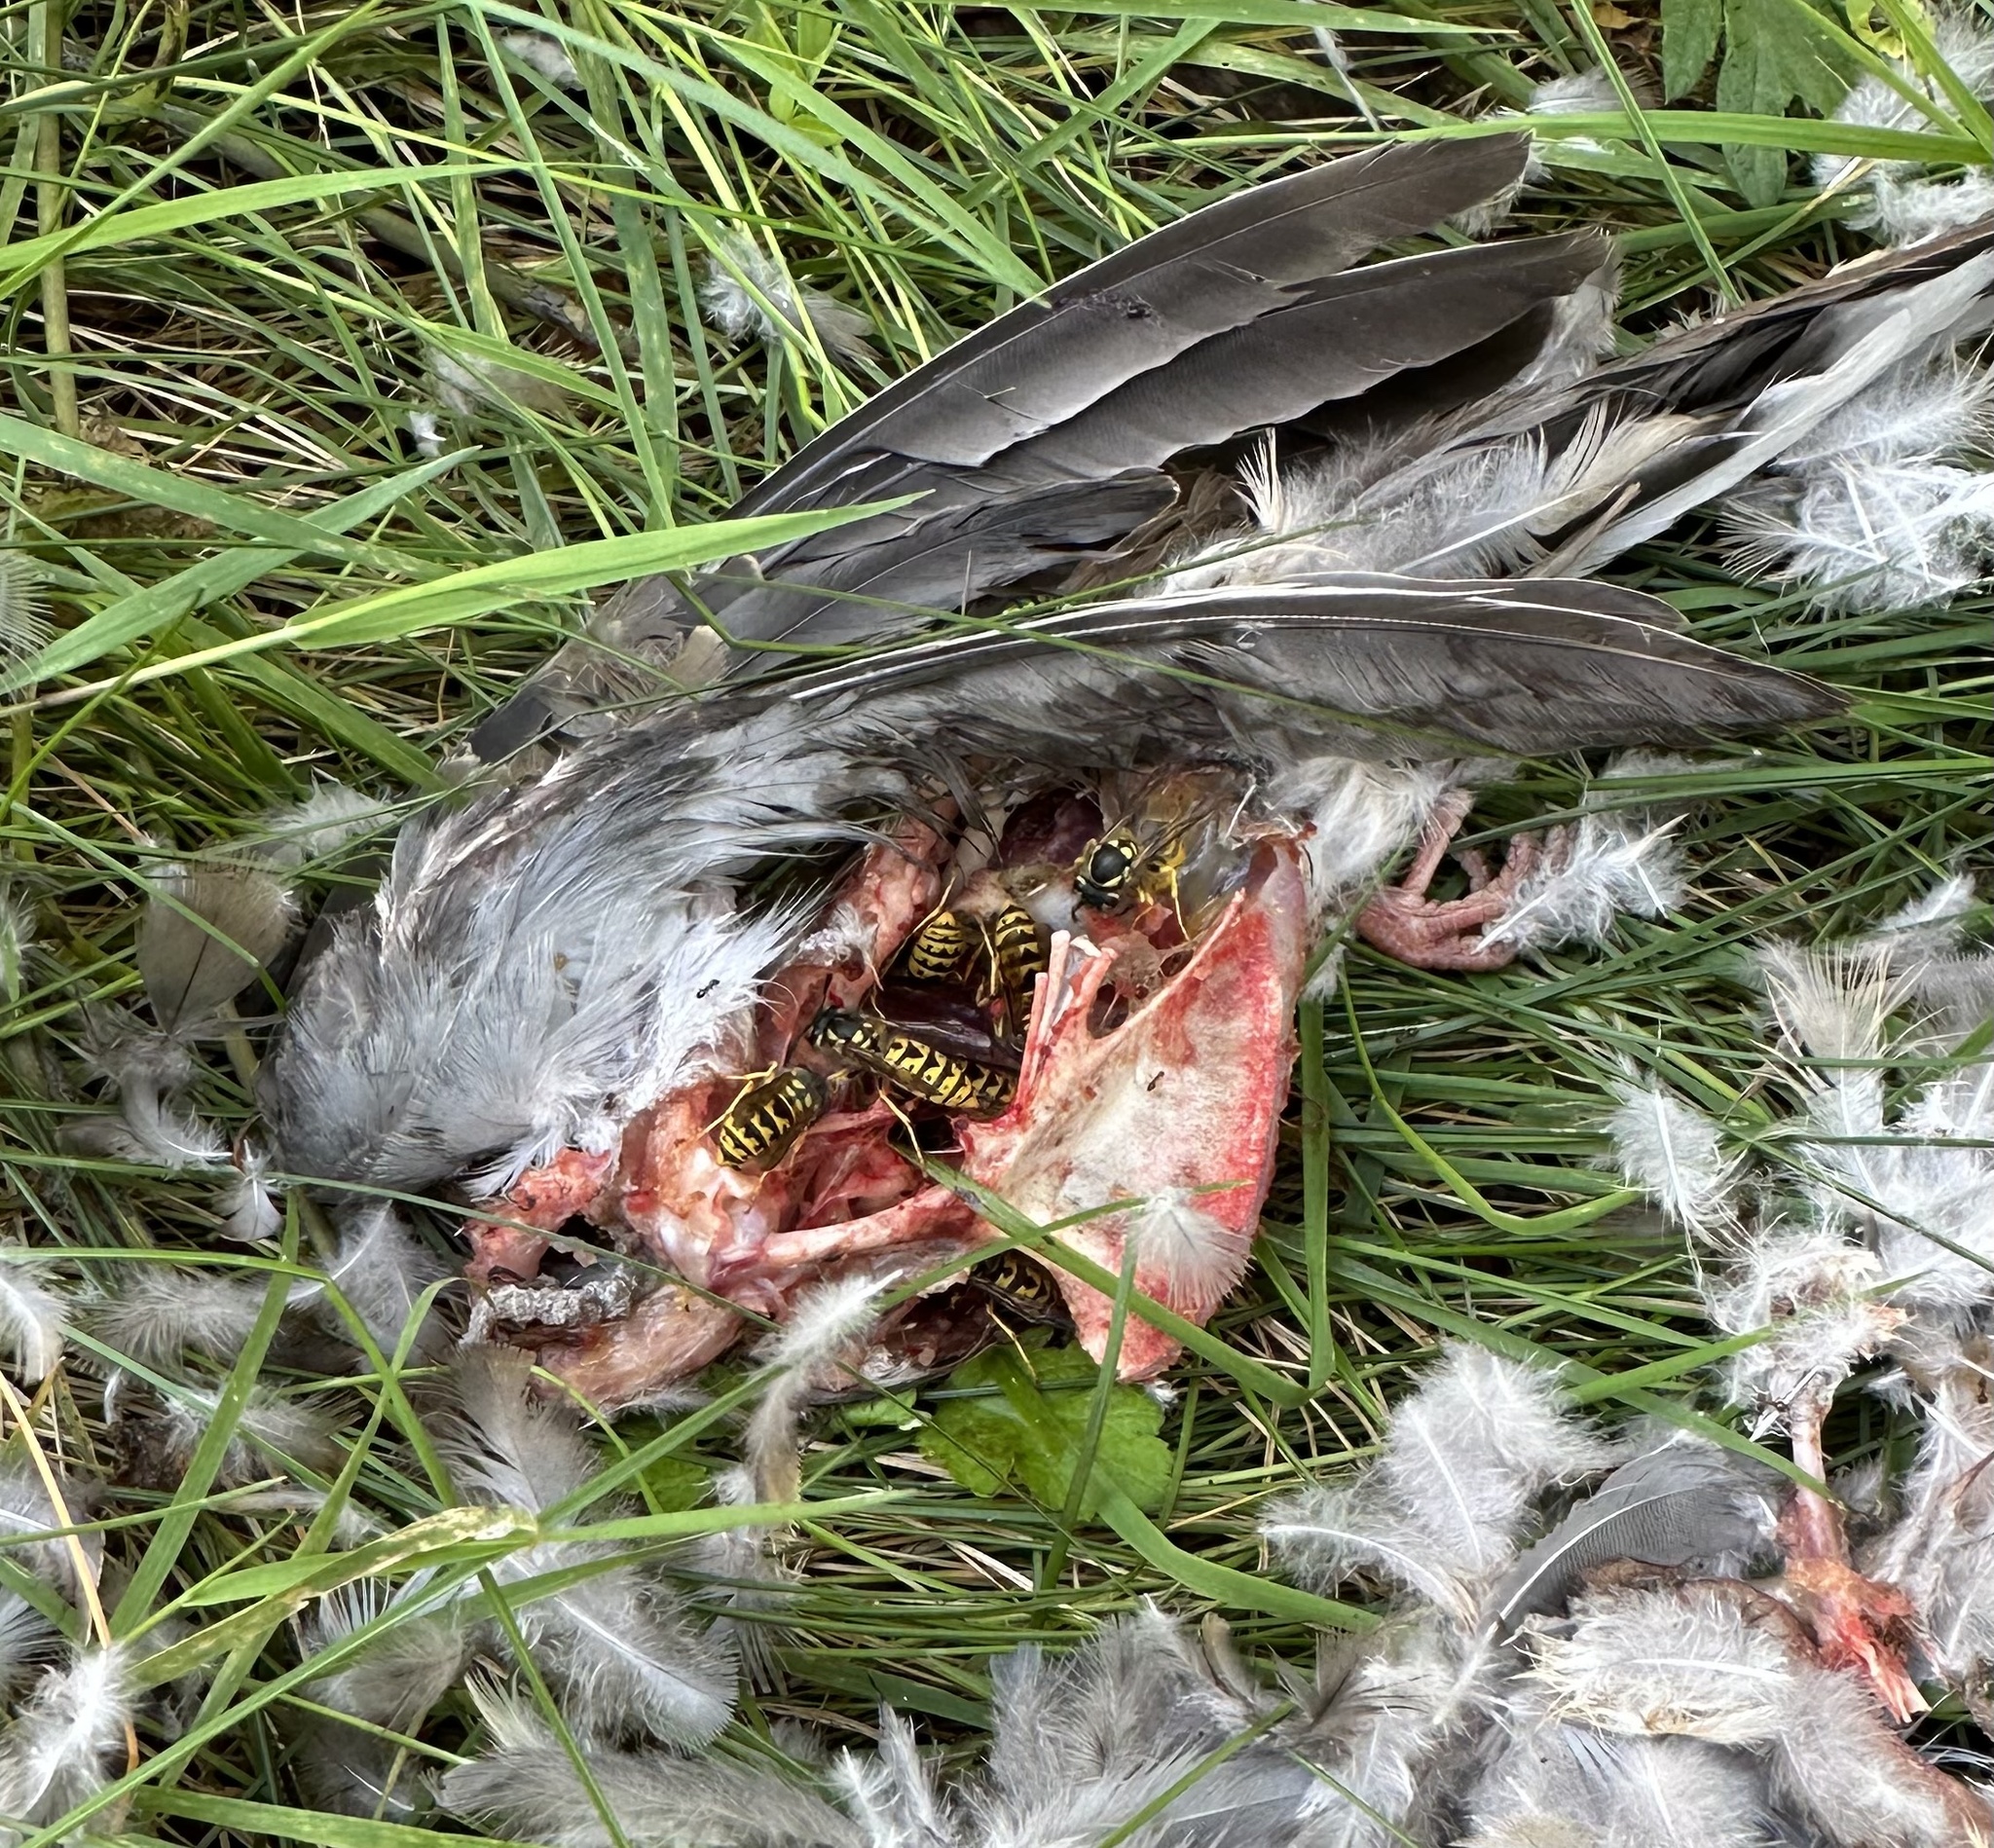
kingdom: Animalia
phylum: Arthropoda
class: Insecta
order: Hymenoptera
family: Vespidae
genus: Vespula
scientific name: Vespula germanica
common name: German wasp
